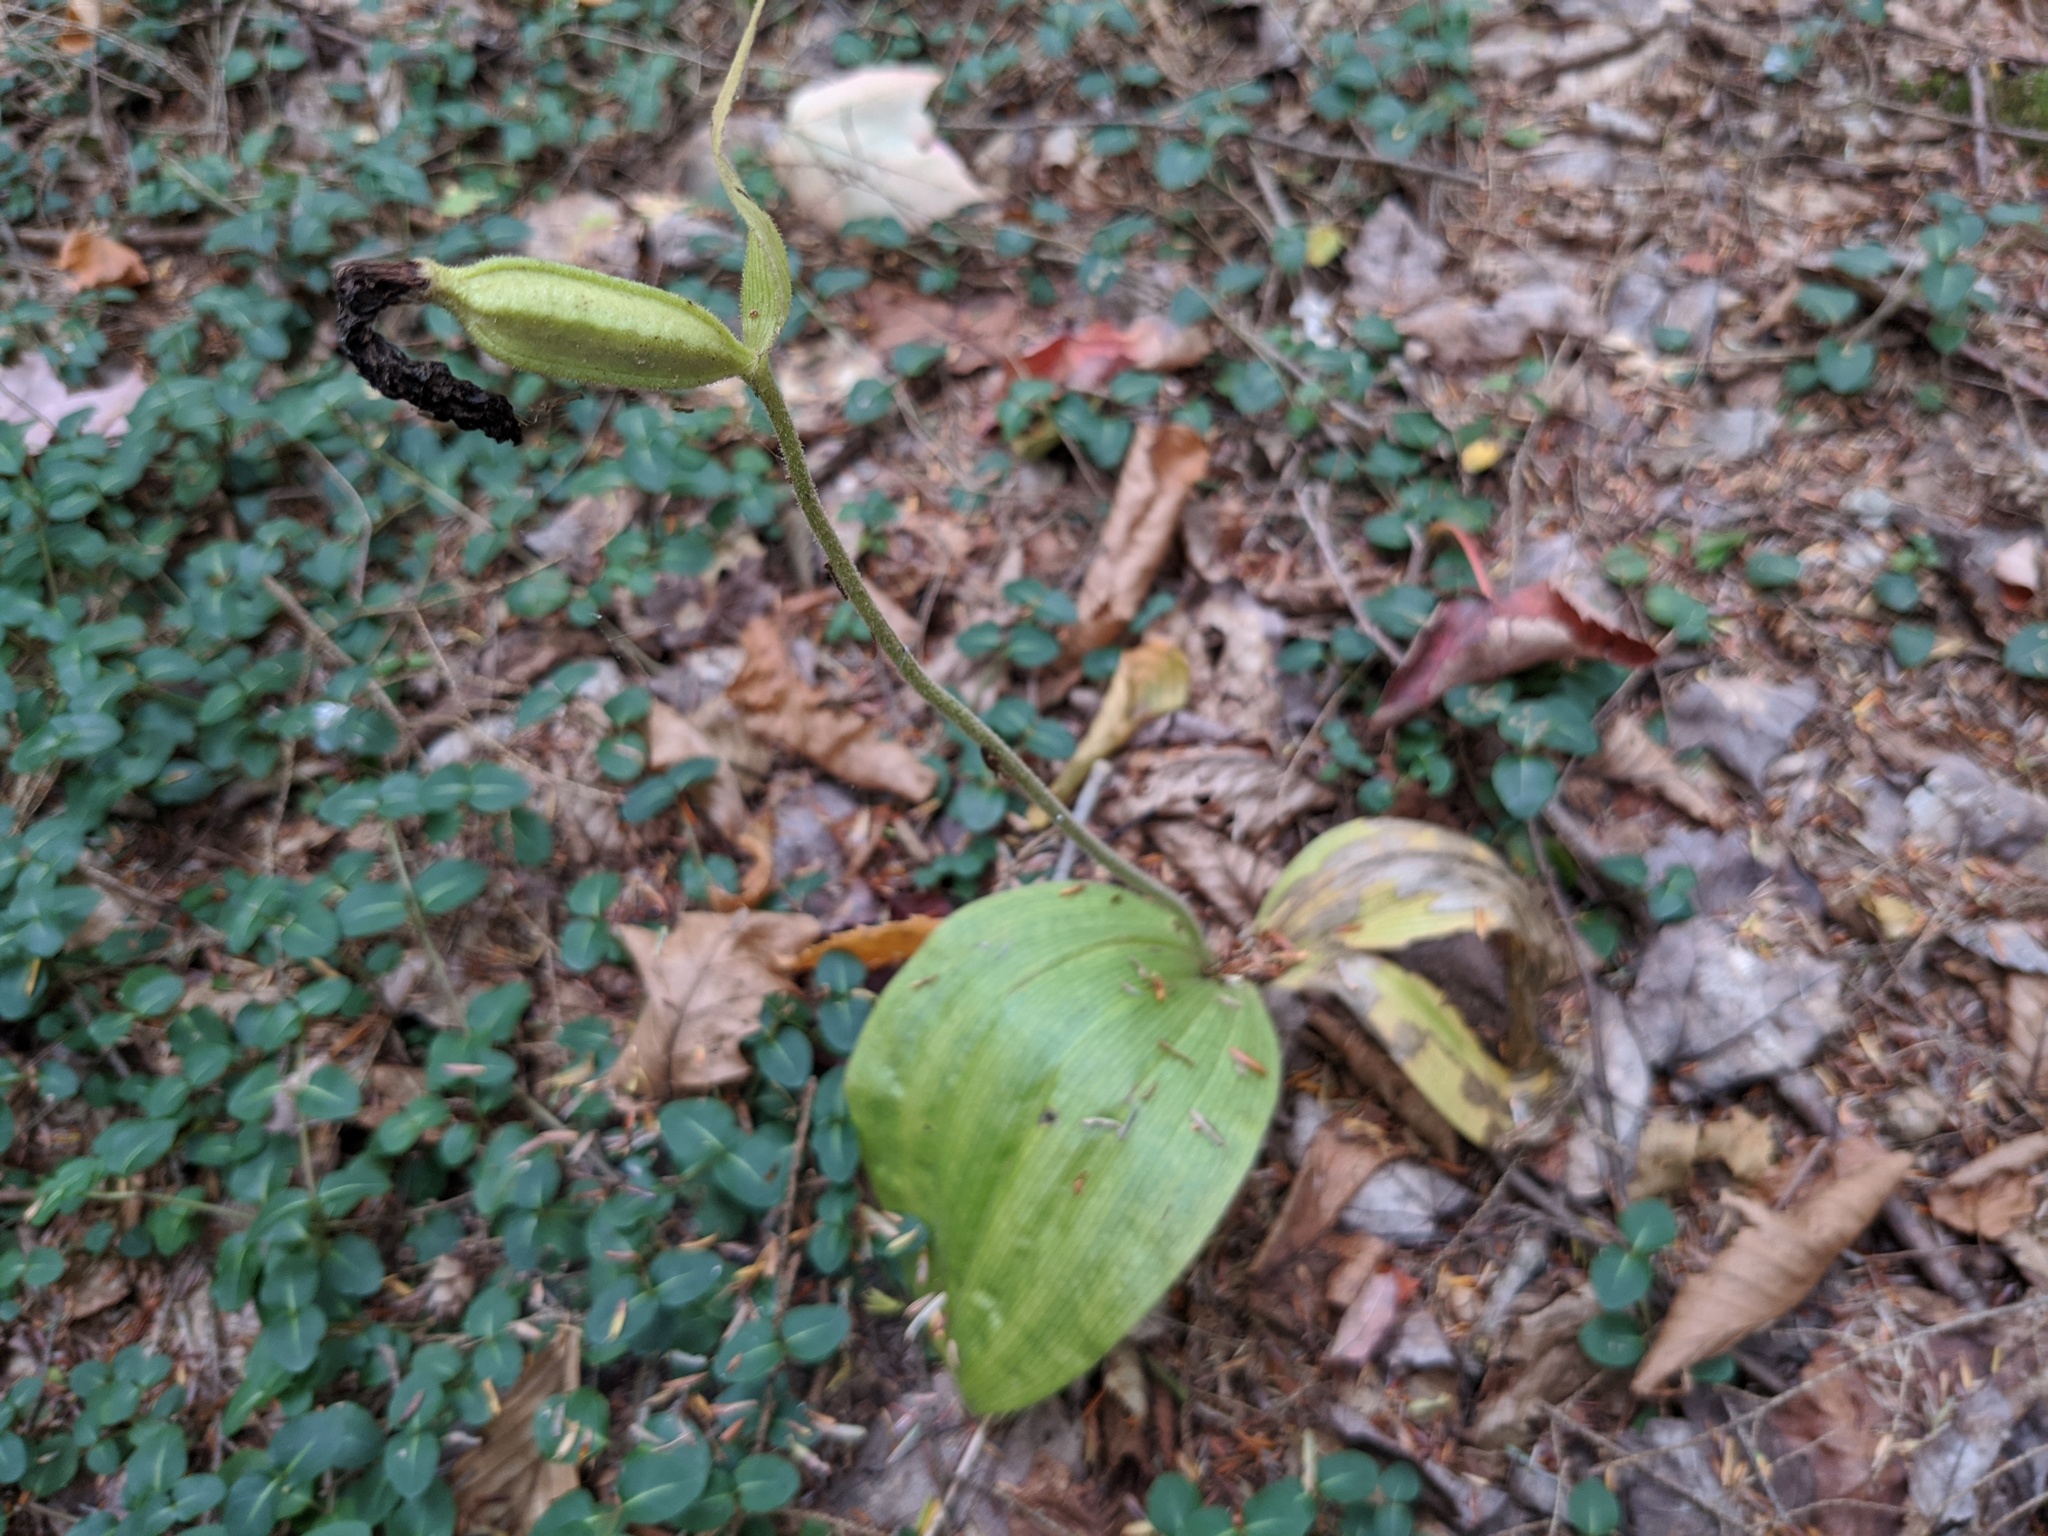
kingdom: Plantae
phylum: Tracheophyta
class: Liliopsida
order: Asparagales
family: Orchidaceae
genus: Cypripedium
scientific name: Cypripedium acaule
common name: Pink lady's-slipper
